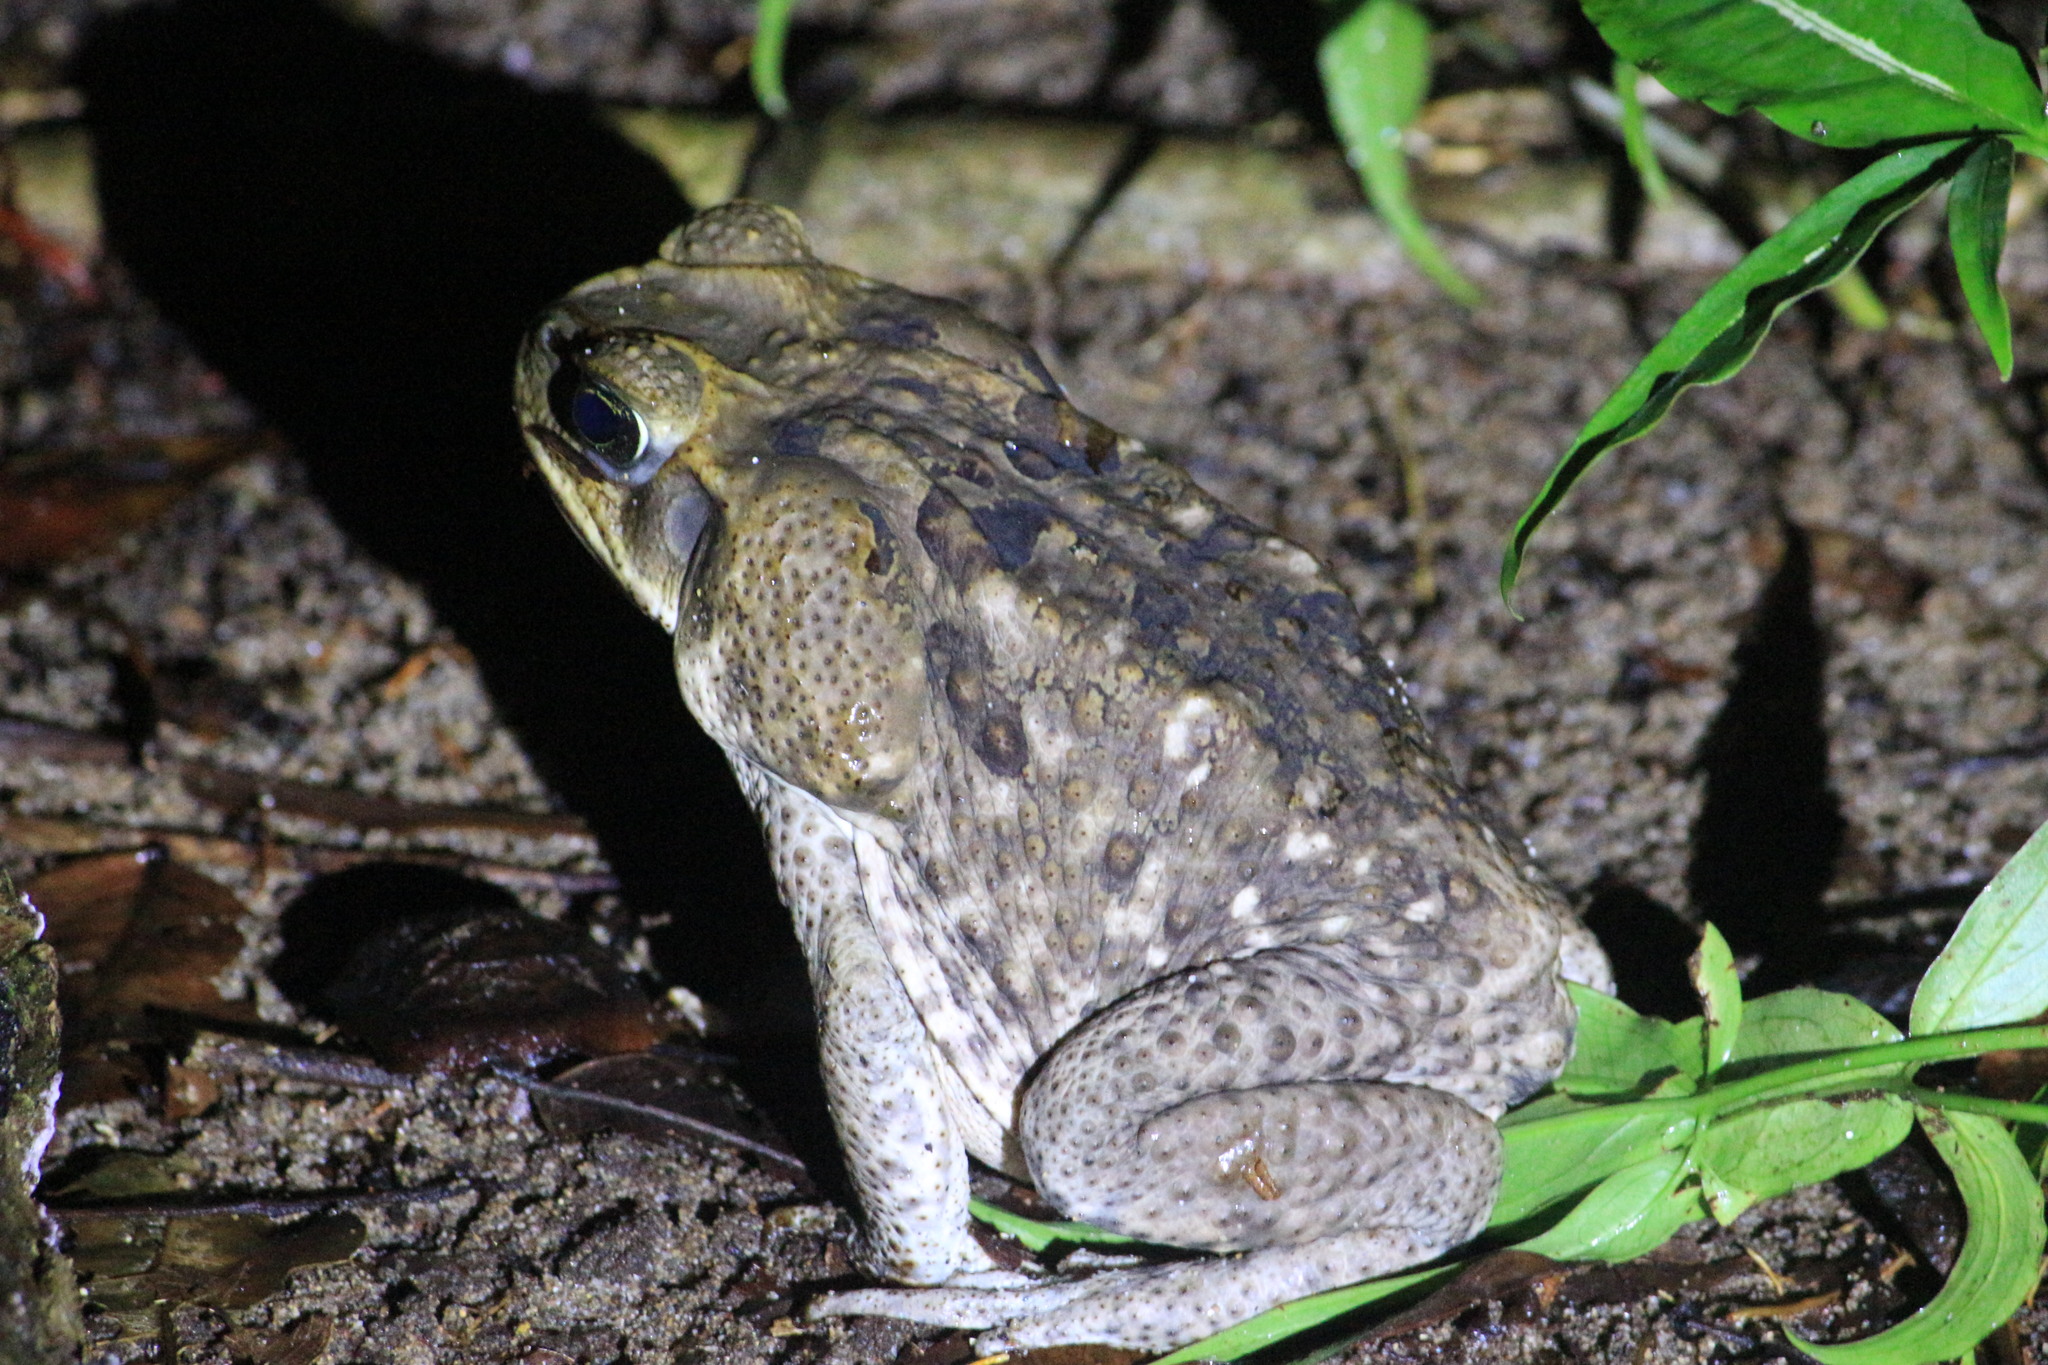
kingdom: Animalia
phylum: Chordata
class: Amphibia
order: Anura
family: Bufonidae
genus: Rhinella
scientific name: Rhinella horribilis
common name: Mesoamerican cane toad
